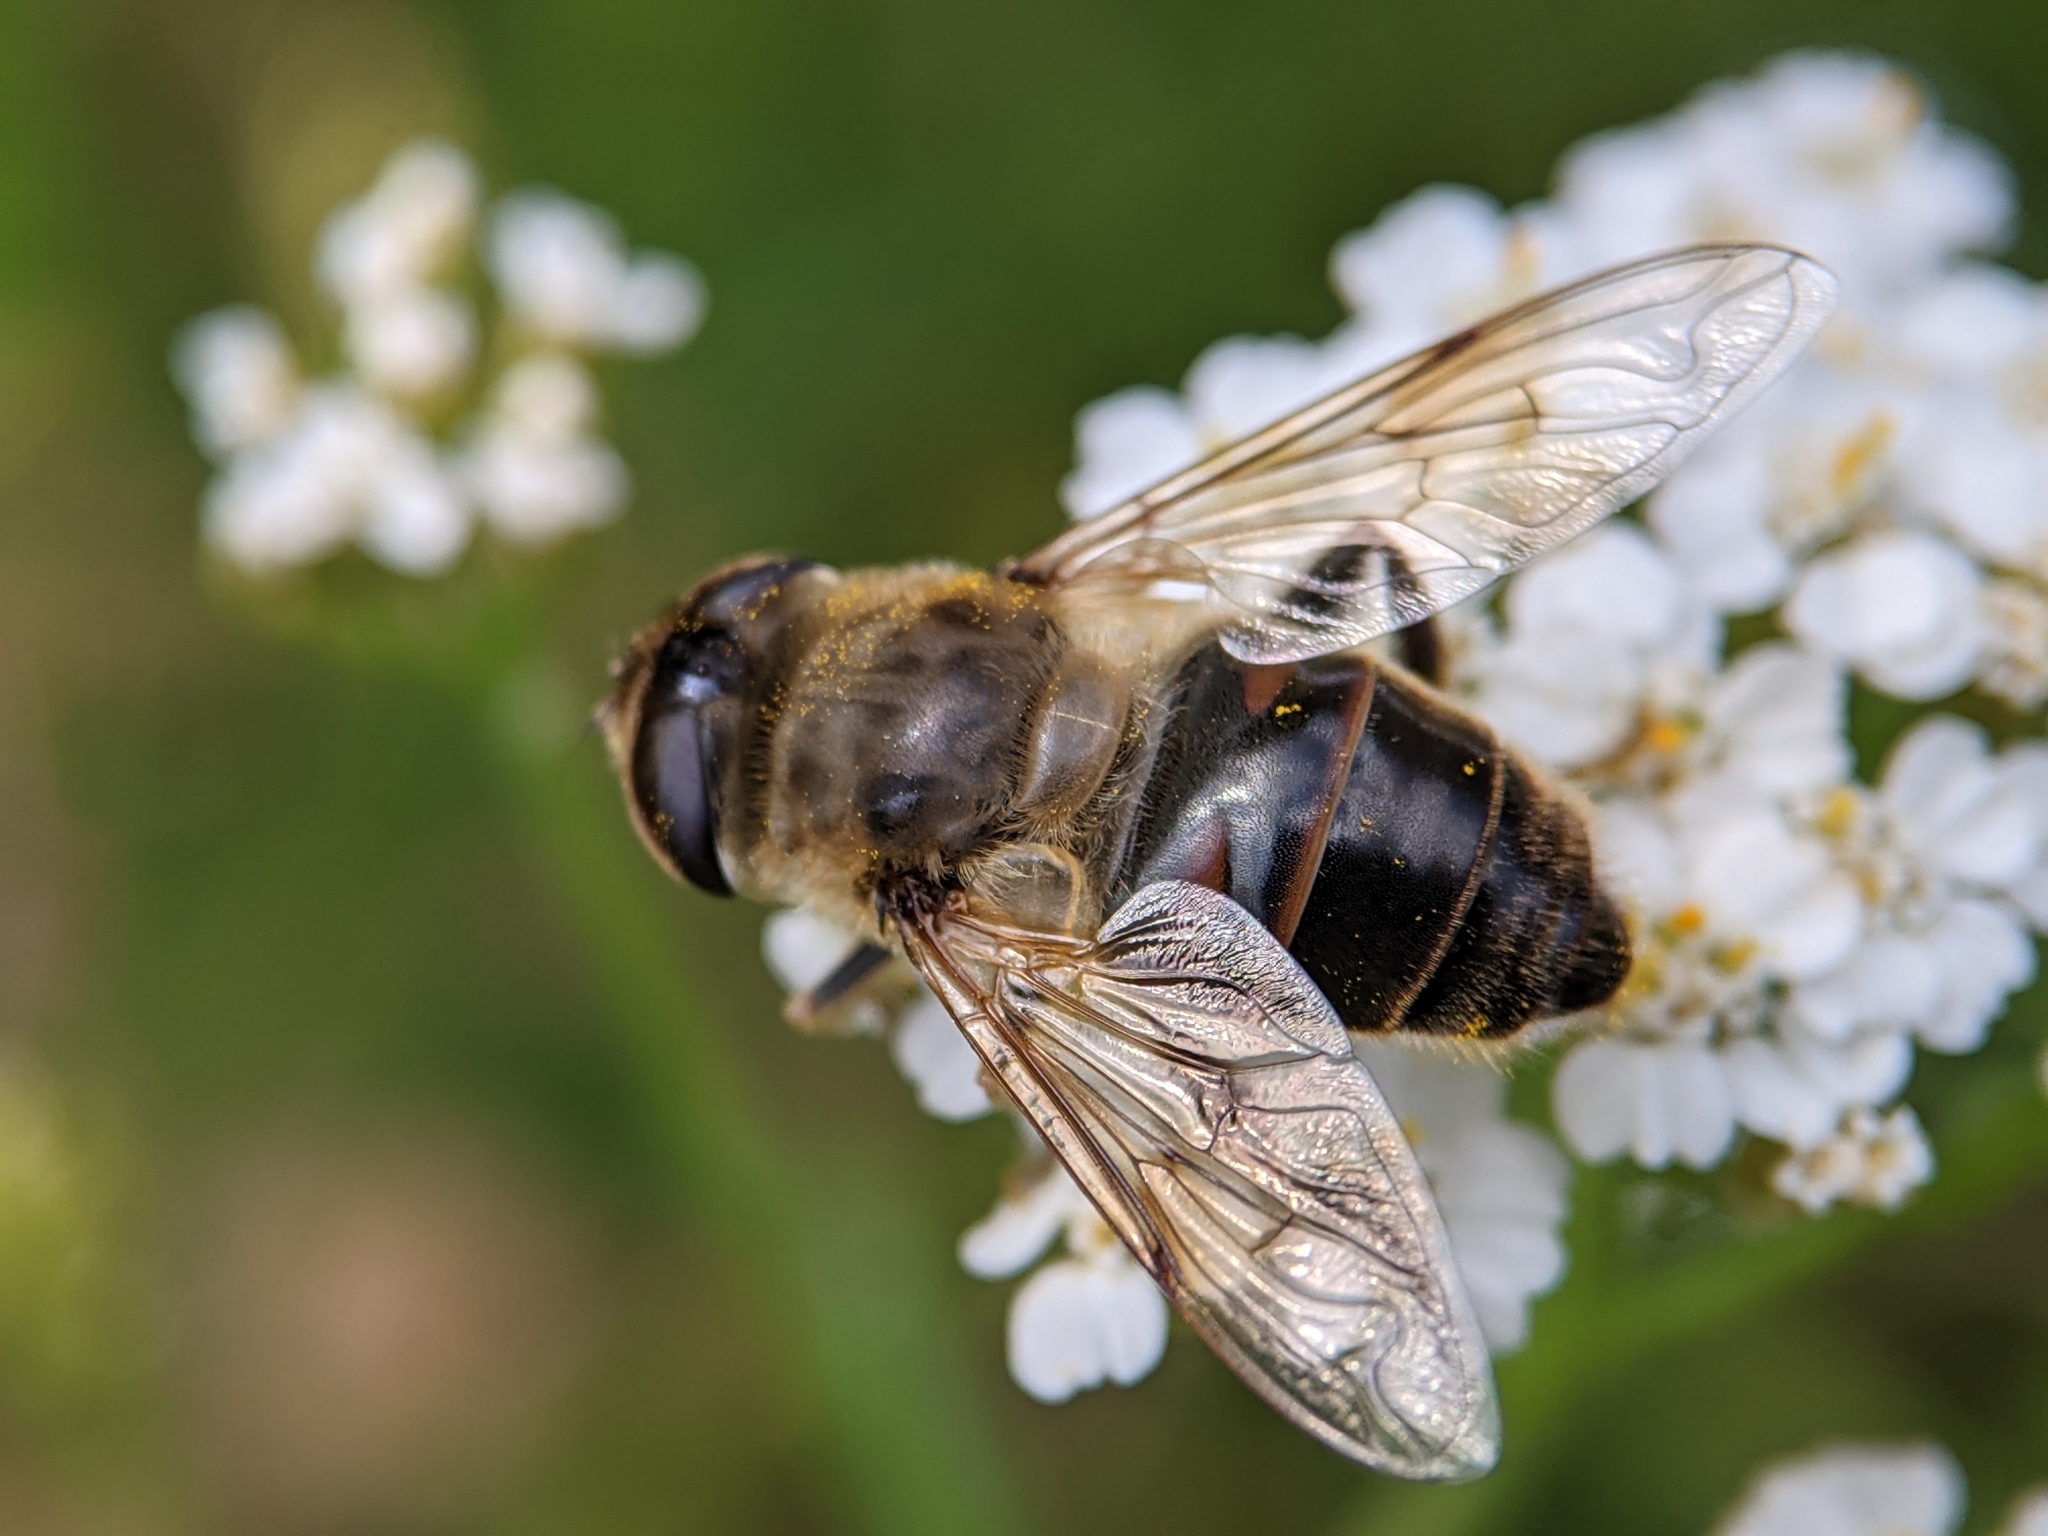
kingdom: Animalia
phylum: Arthropoda
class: Insecta
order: Diptera
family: Syrphidae
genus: Eristalis
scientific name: Eristalis tenax
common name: Drone fly
